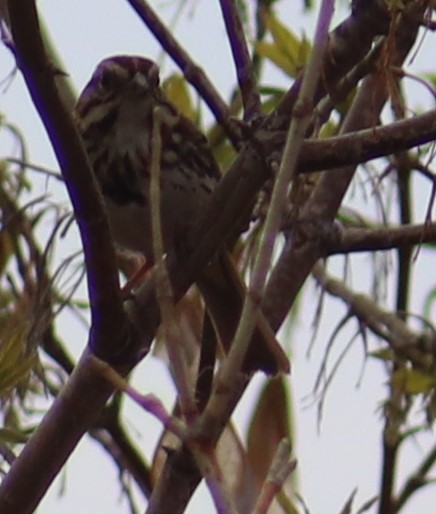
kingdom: Animalia
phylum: Chordata
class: Aves
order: Passeriformes
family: Passerellidae
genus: Melospiza
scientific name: Melospiza melodia
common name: Song sparrow
